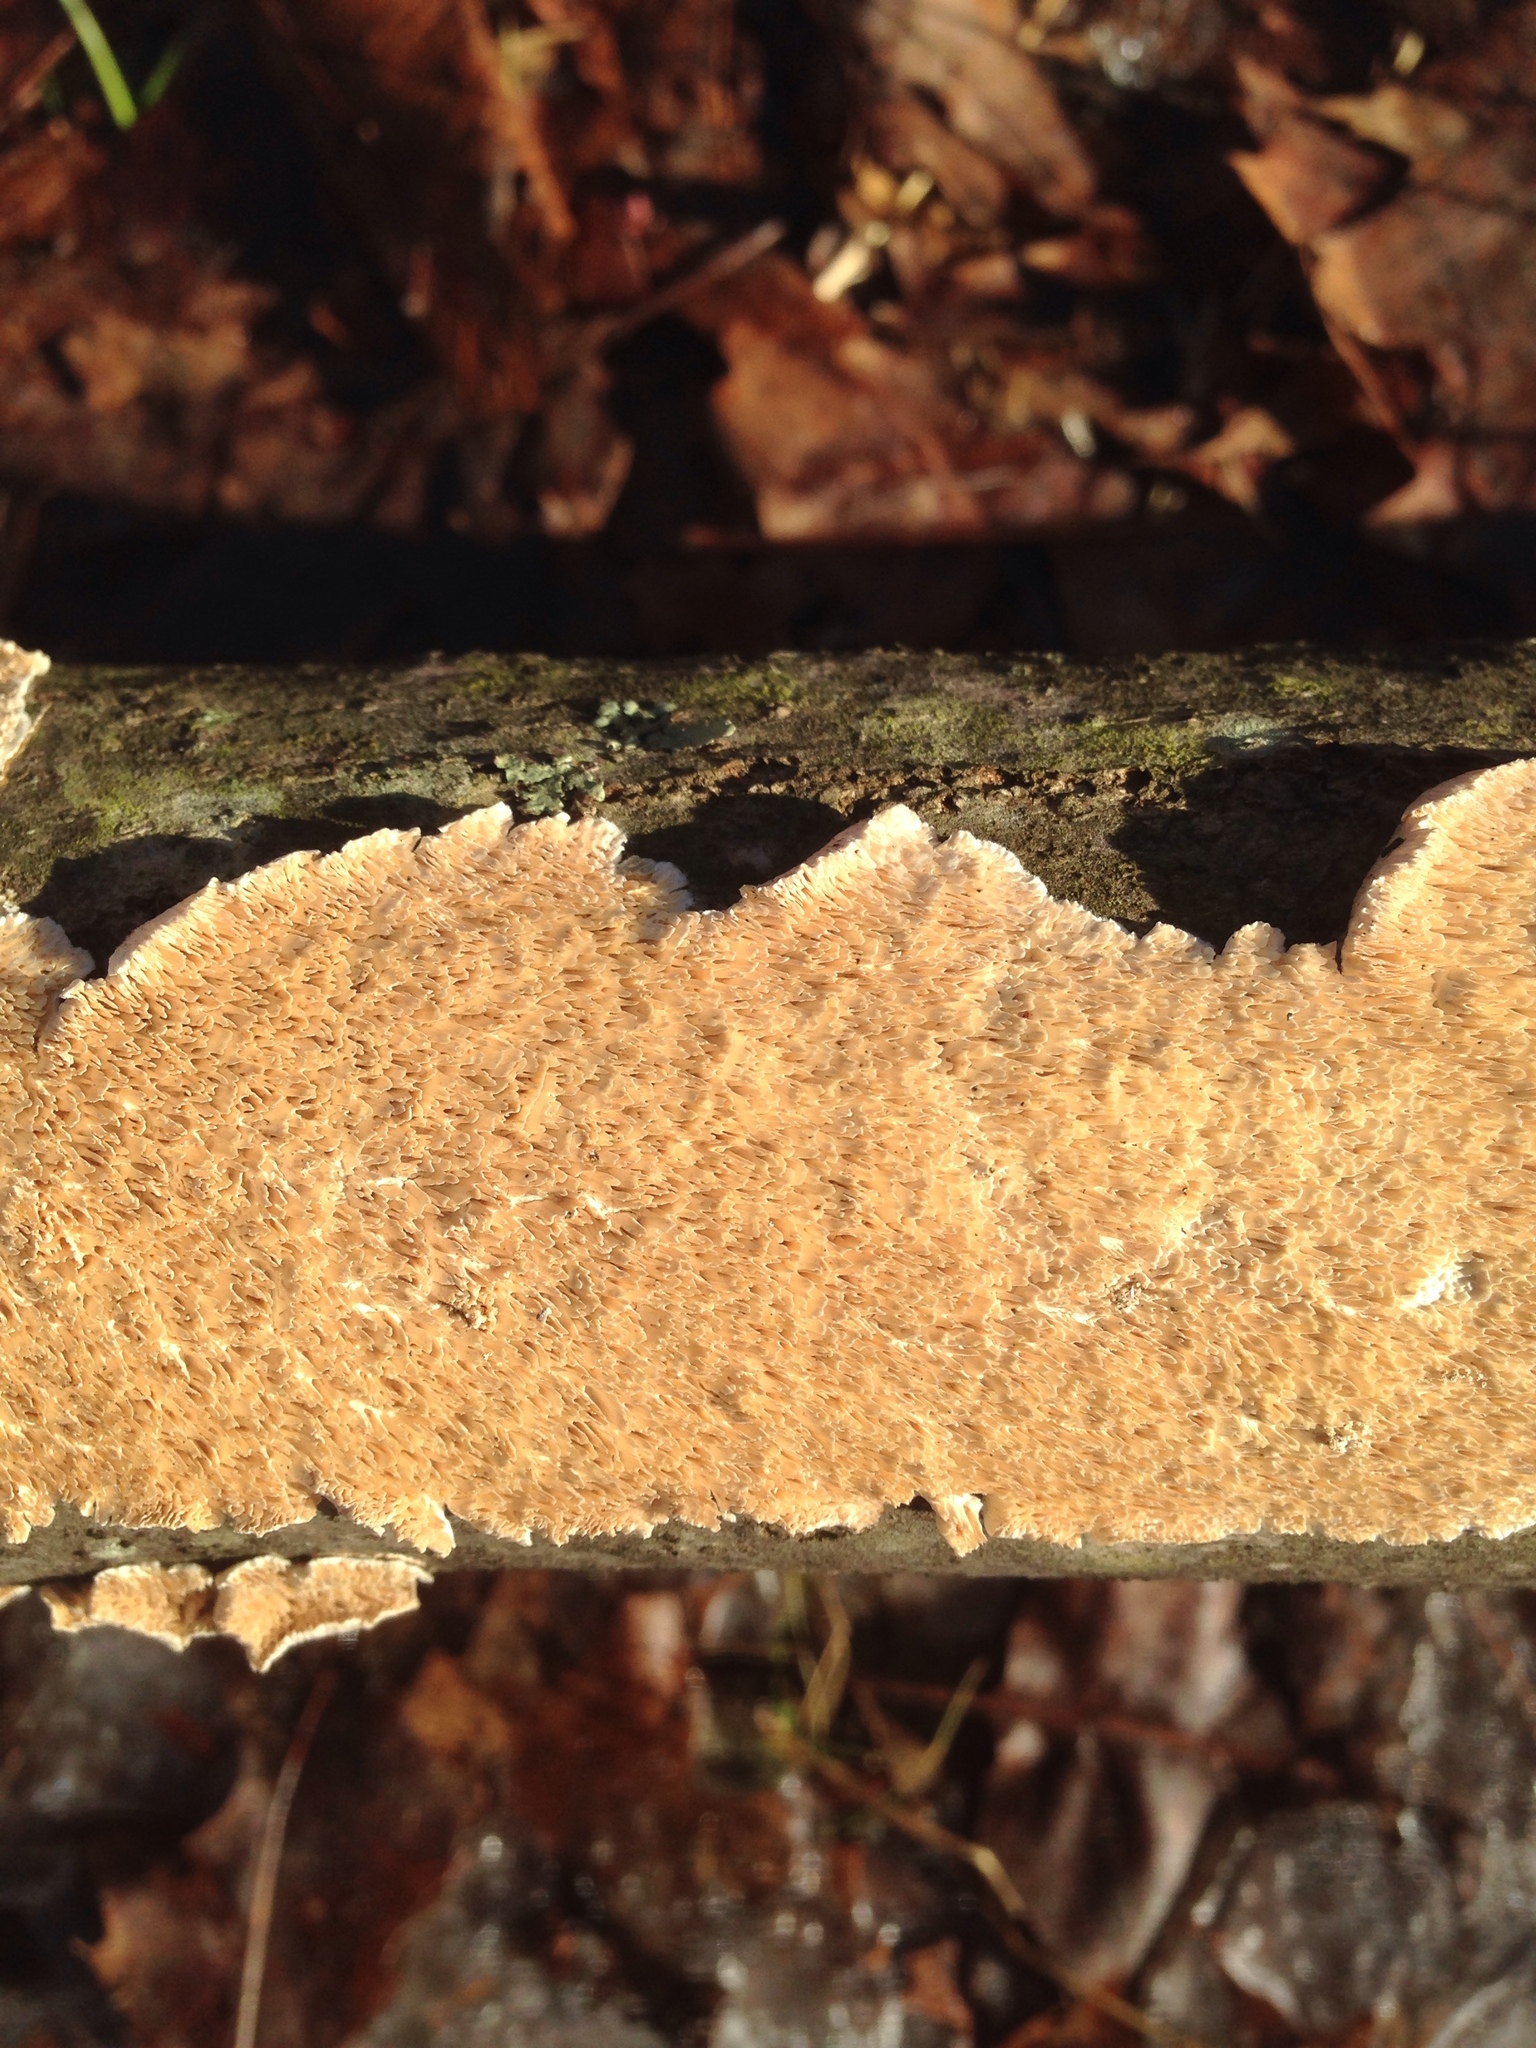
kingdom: Fungi
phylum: Basidiomycota
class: Agaricomycetes
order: Polyporales
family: Irpicaceae
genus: Irpex
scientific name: Irpex lacteus
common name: Milk-white toothed polypore
